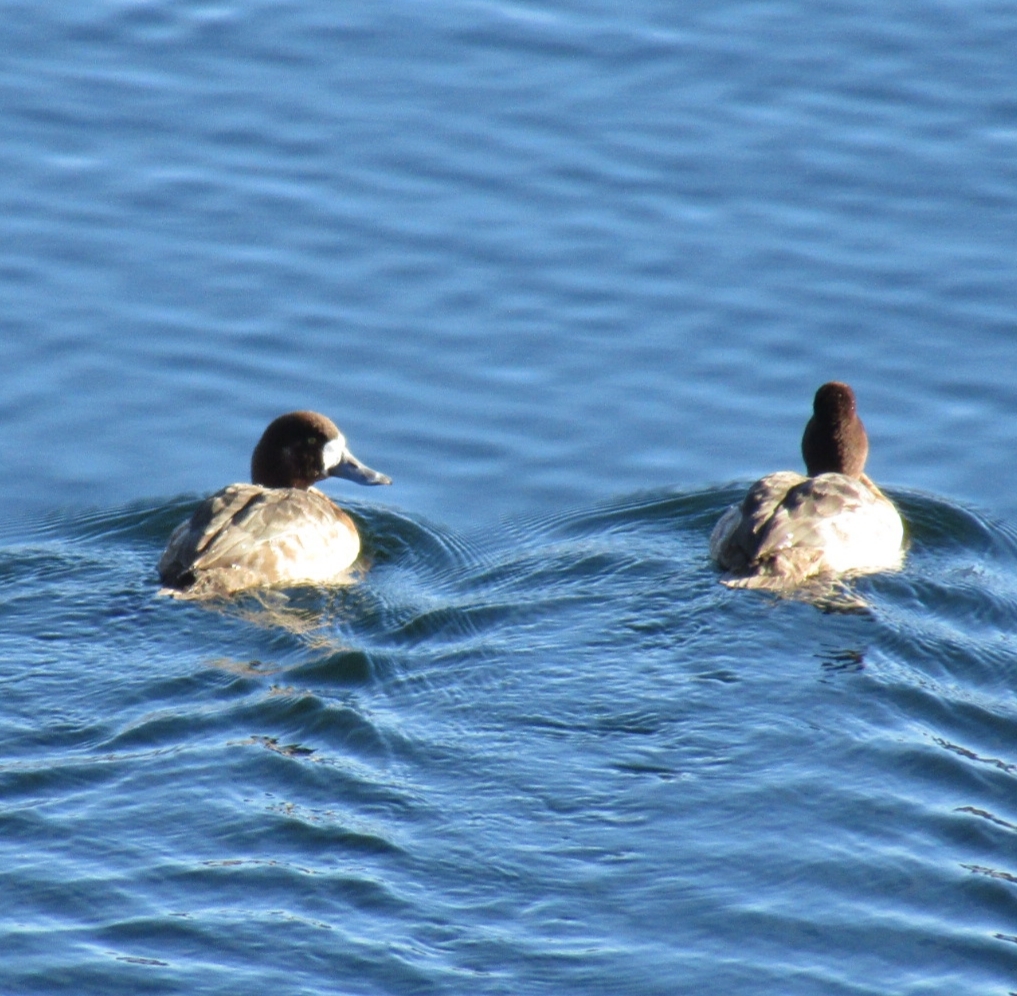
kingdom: Animalia
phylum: Chordata
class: Aves
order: Anseriformes
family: Anatidae
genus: Aythya
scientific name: Aythya affinis
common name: Lesser scaup
